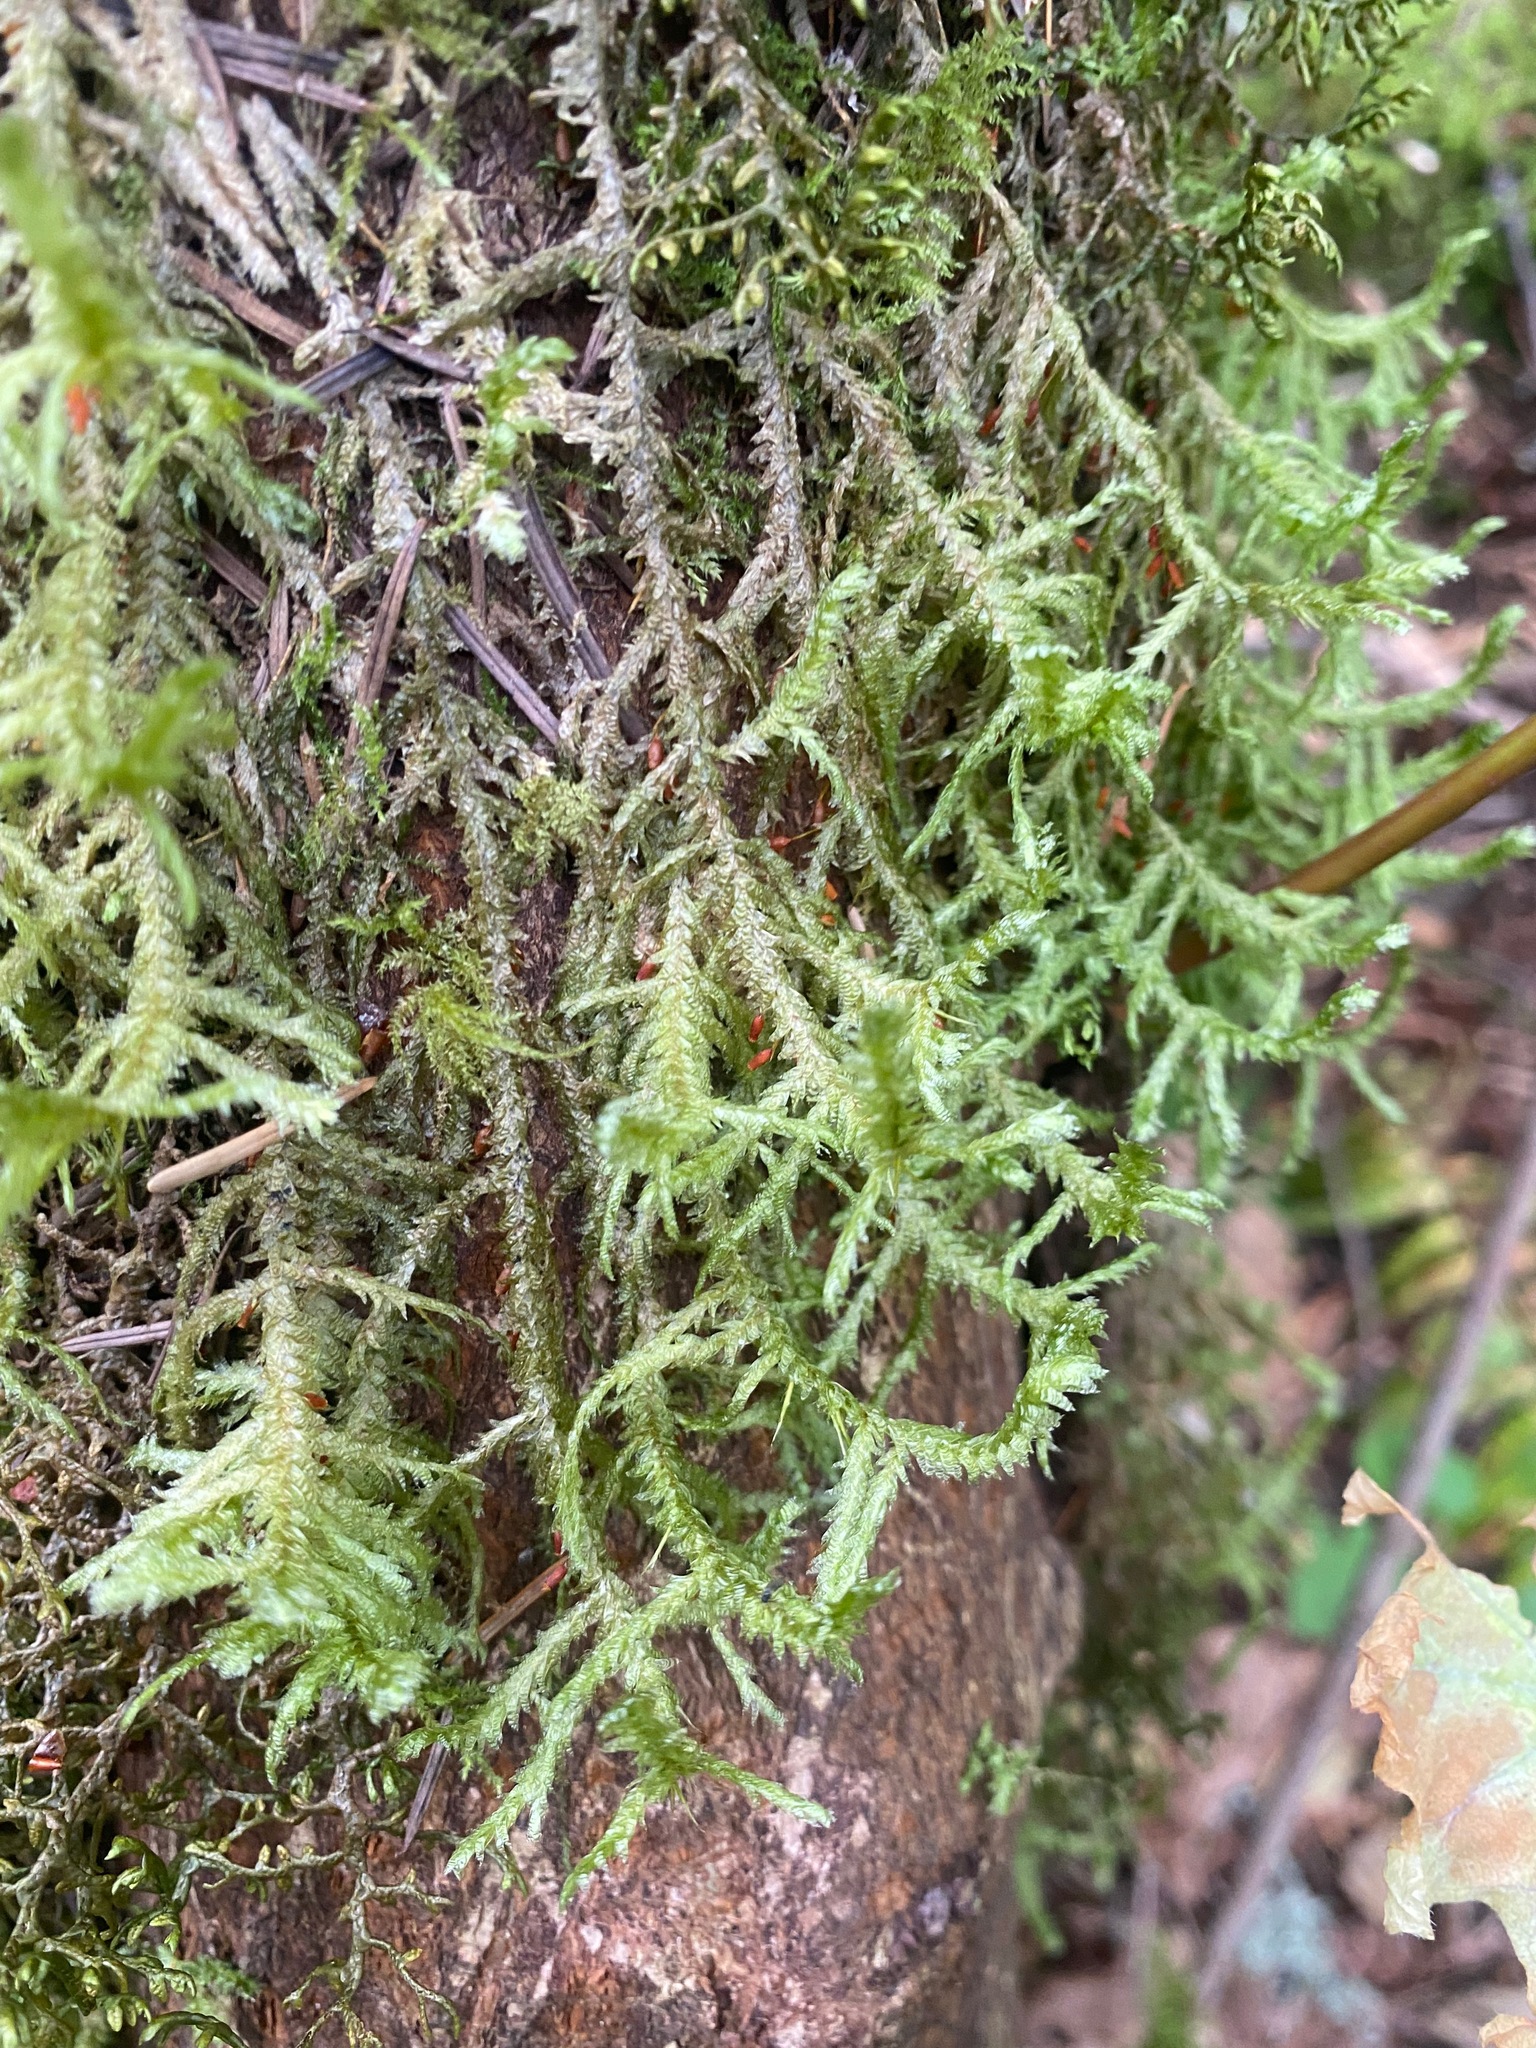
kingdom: Plantae
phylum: Bryophyta
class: Bryopsida
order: Hypnales
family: Neckeraceae
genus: Neckera
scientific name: Neckera douglasii
